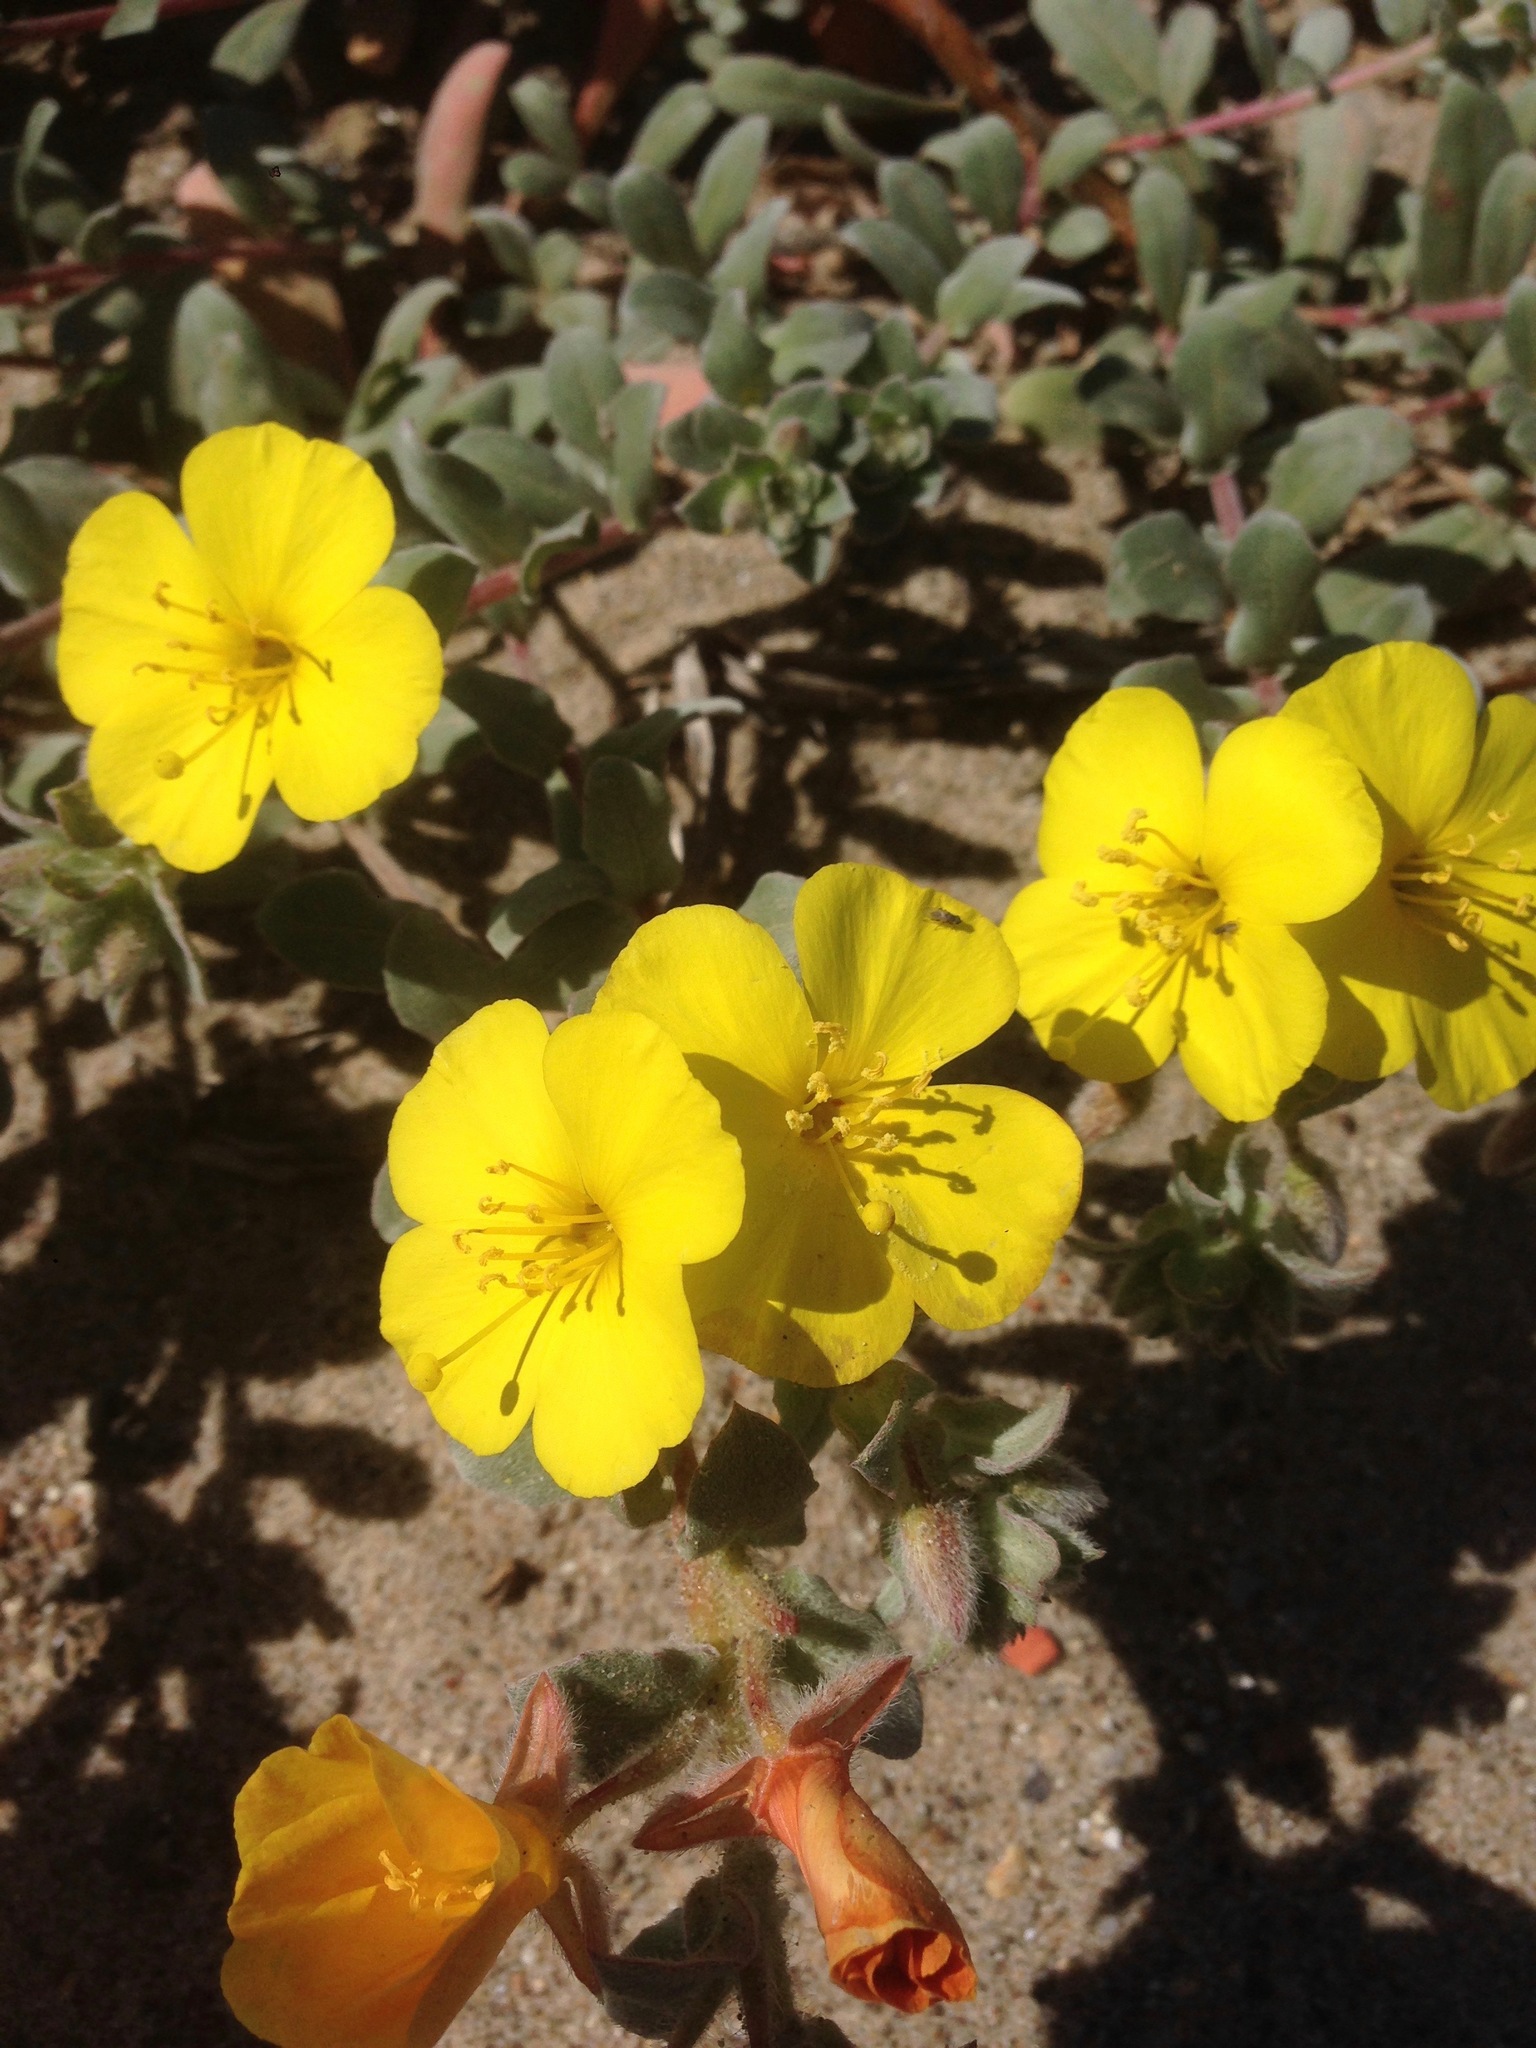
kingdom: Plantae
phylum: Tracheophyta
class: Magnoliopsida
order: Myrtales
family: Onagraceae
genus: Camissoniopsis
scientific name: Camissoniopsis cheiranthifolia
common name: Beach suncup
